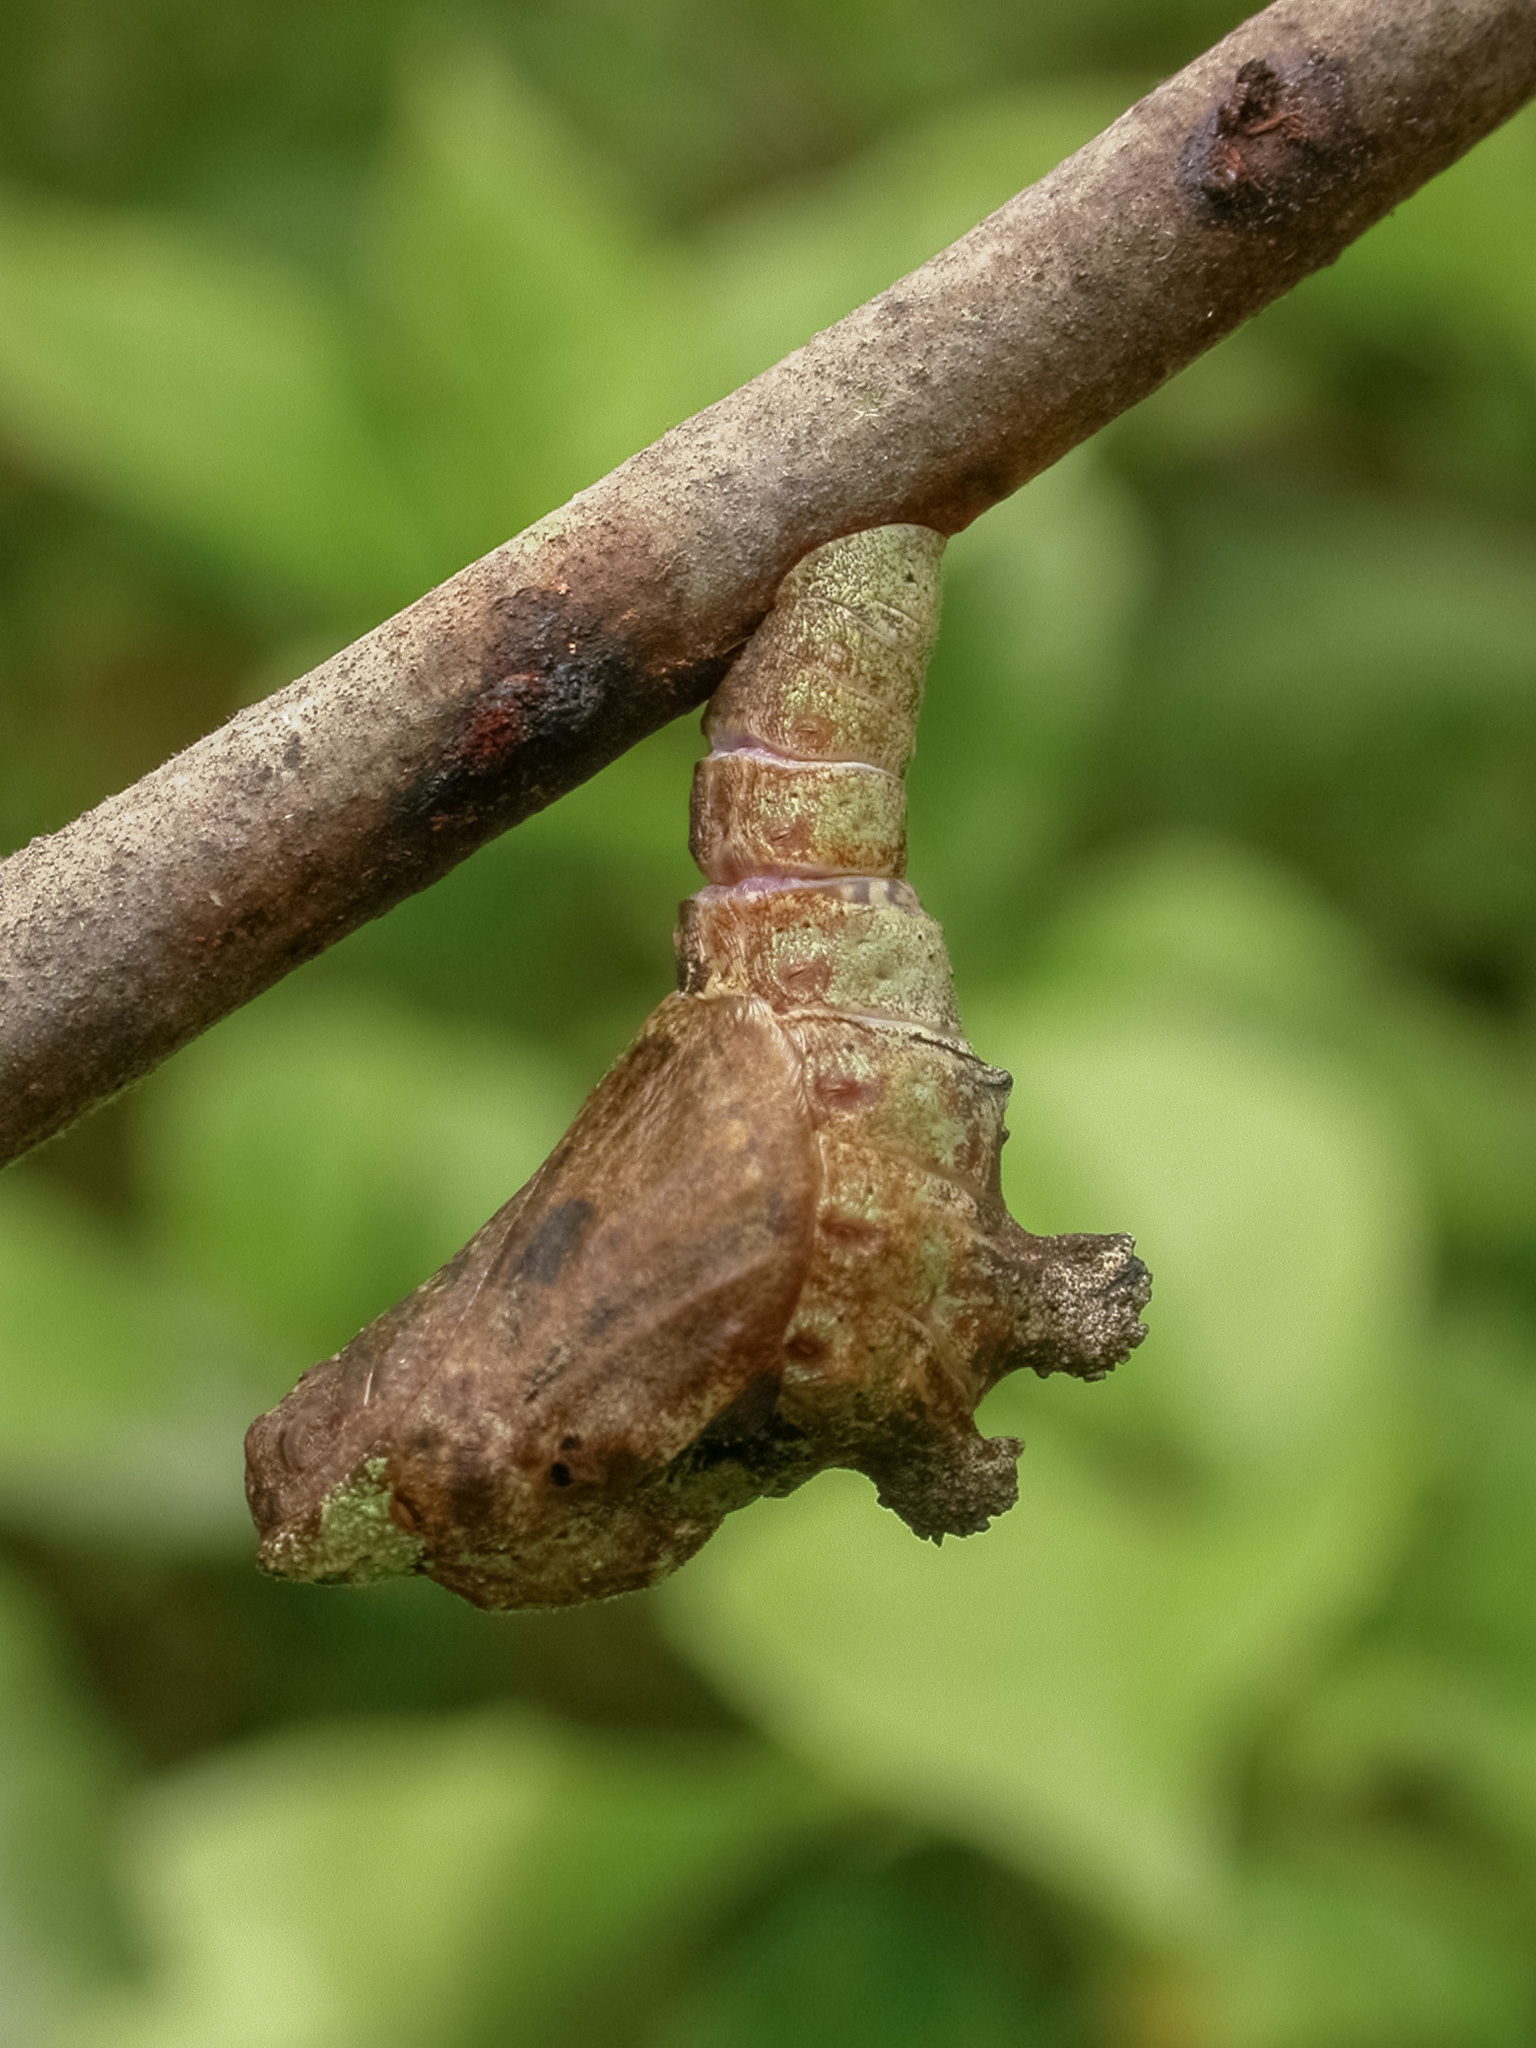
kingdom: Animalia
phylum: Arthropoda
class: Insecta
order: Lepidoptera
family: Lycaenidae
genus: Jacoona
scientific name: Jacoona anasuja
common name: Great imperial
